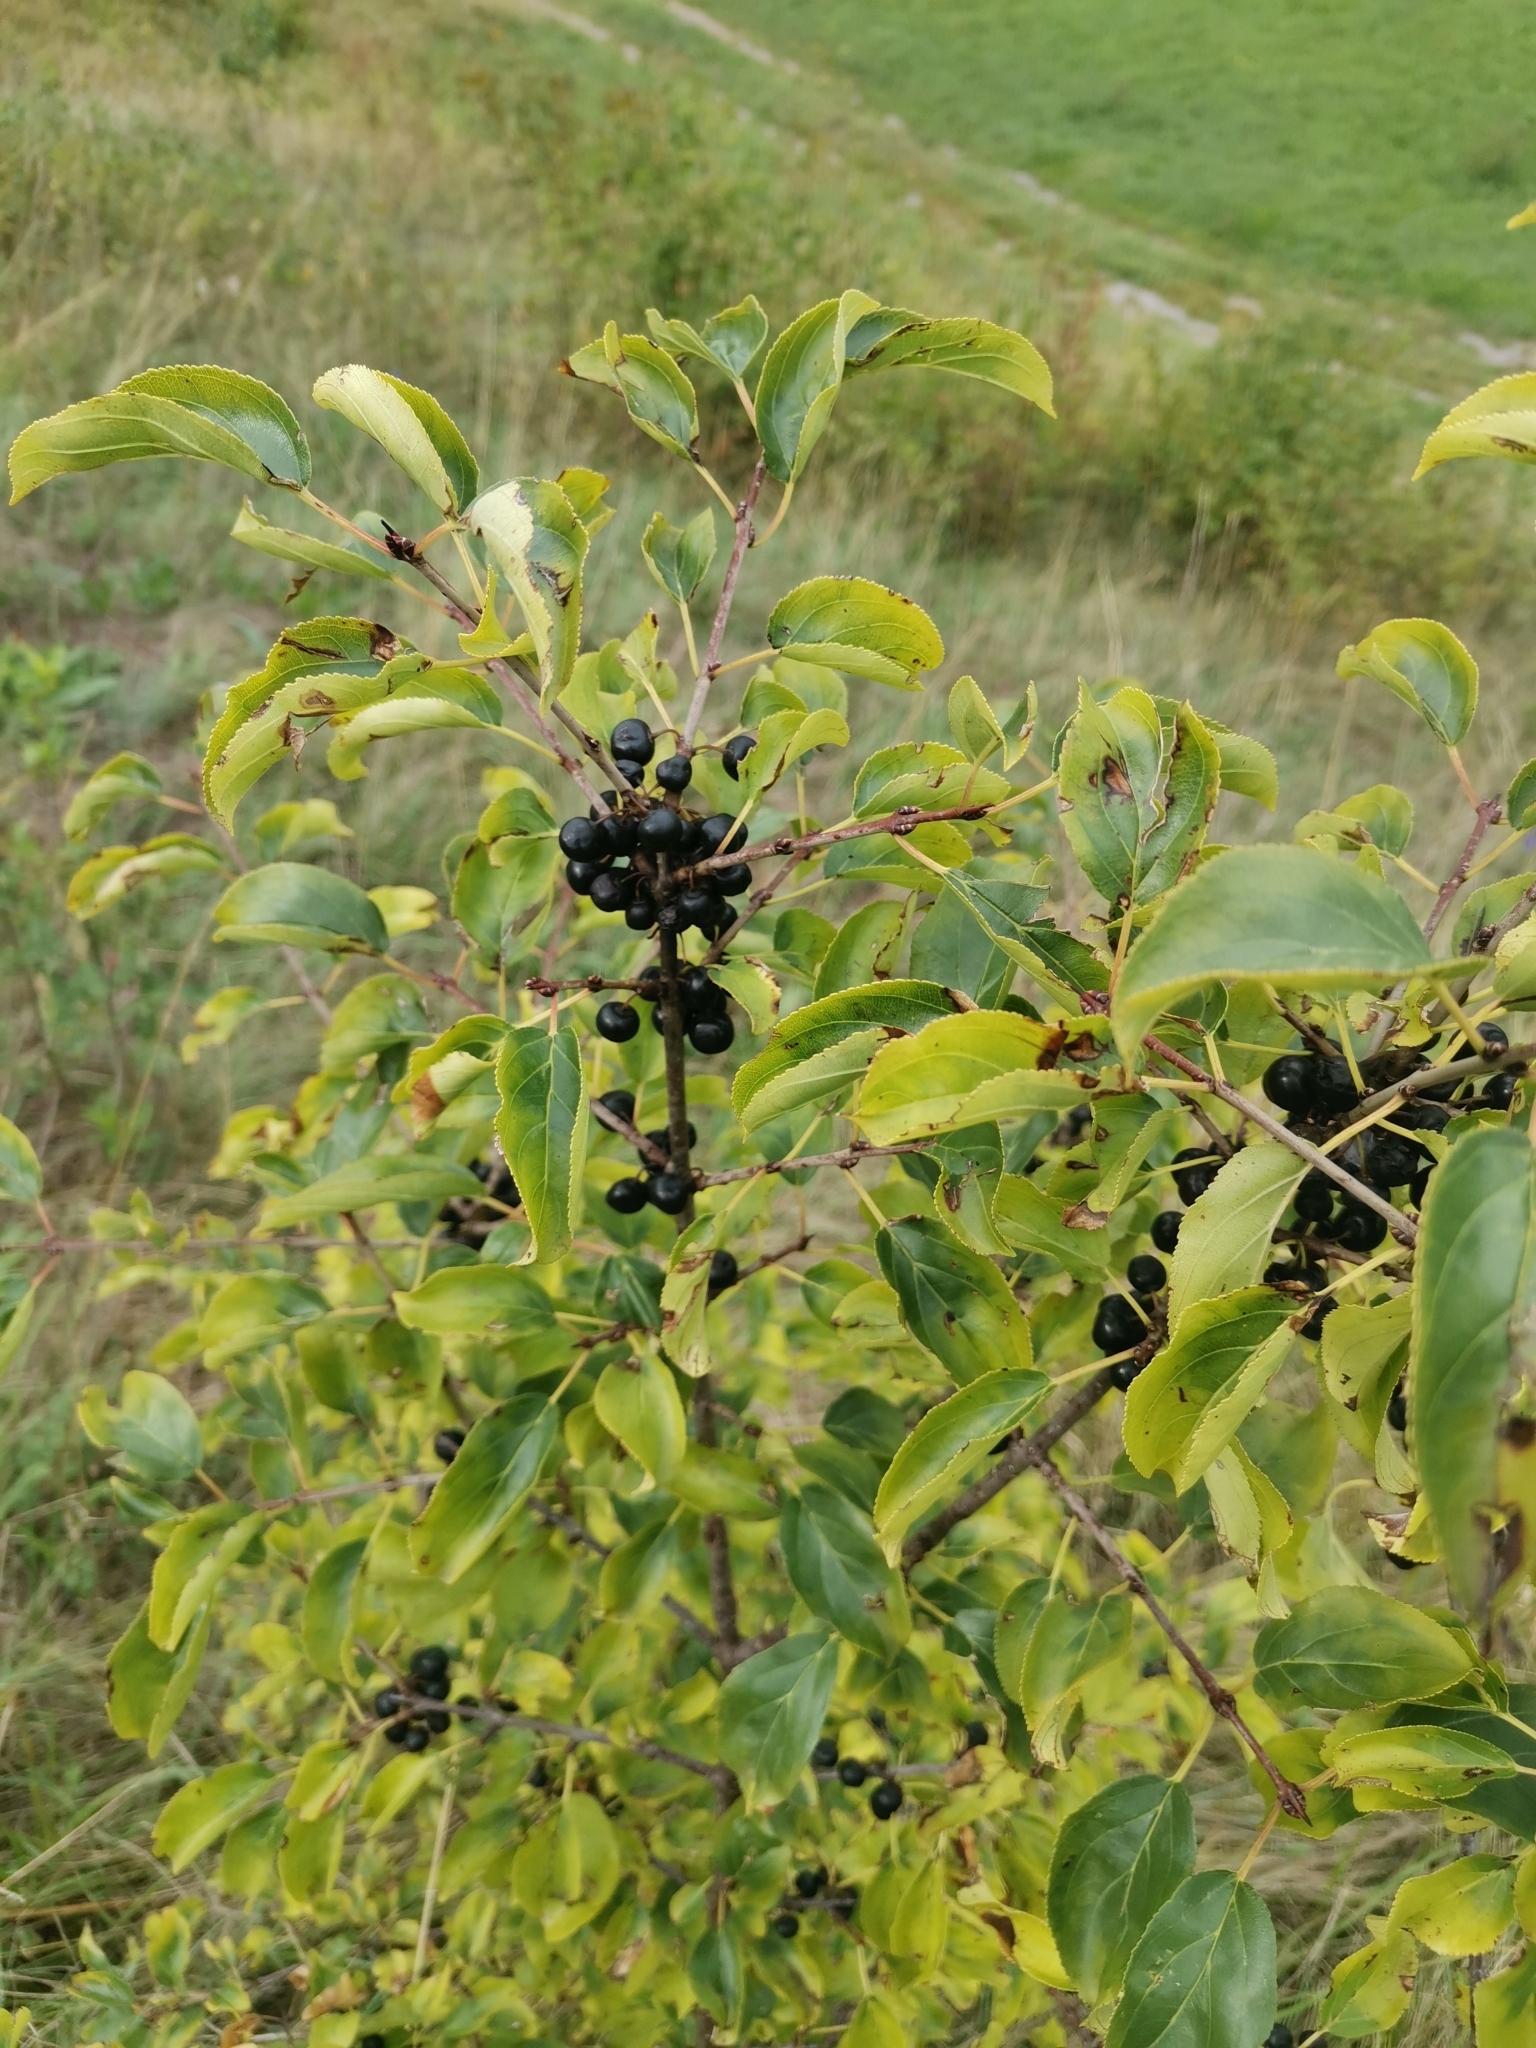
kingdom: Plantae
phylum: Tracheophyta
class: Magnoliopsida
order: Rosales
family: Rhamnaceae
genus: Rhamnus
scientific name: Rhamnus cathartica
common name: Common buckthorn
